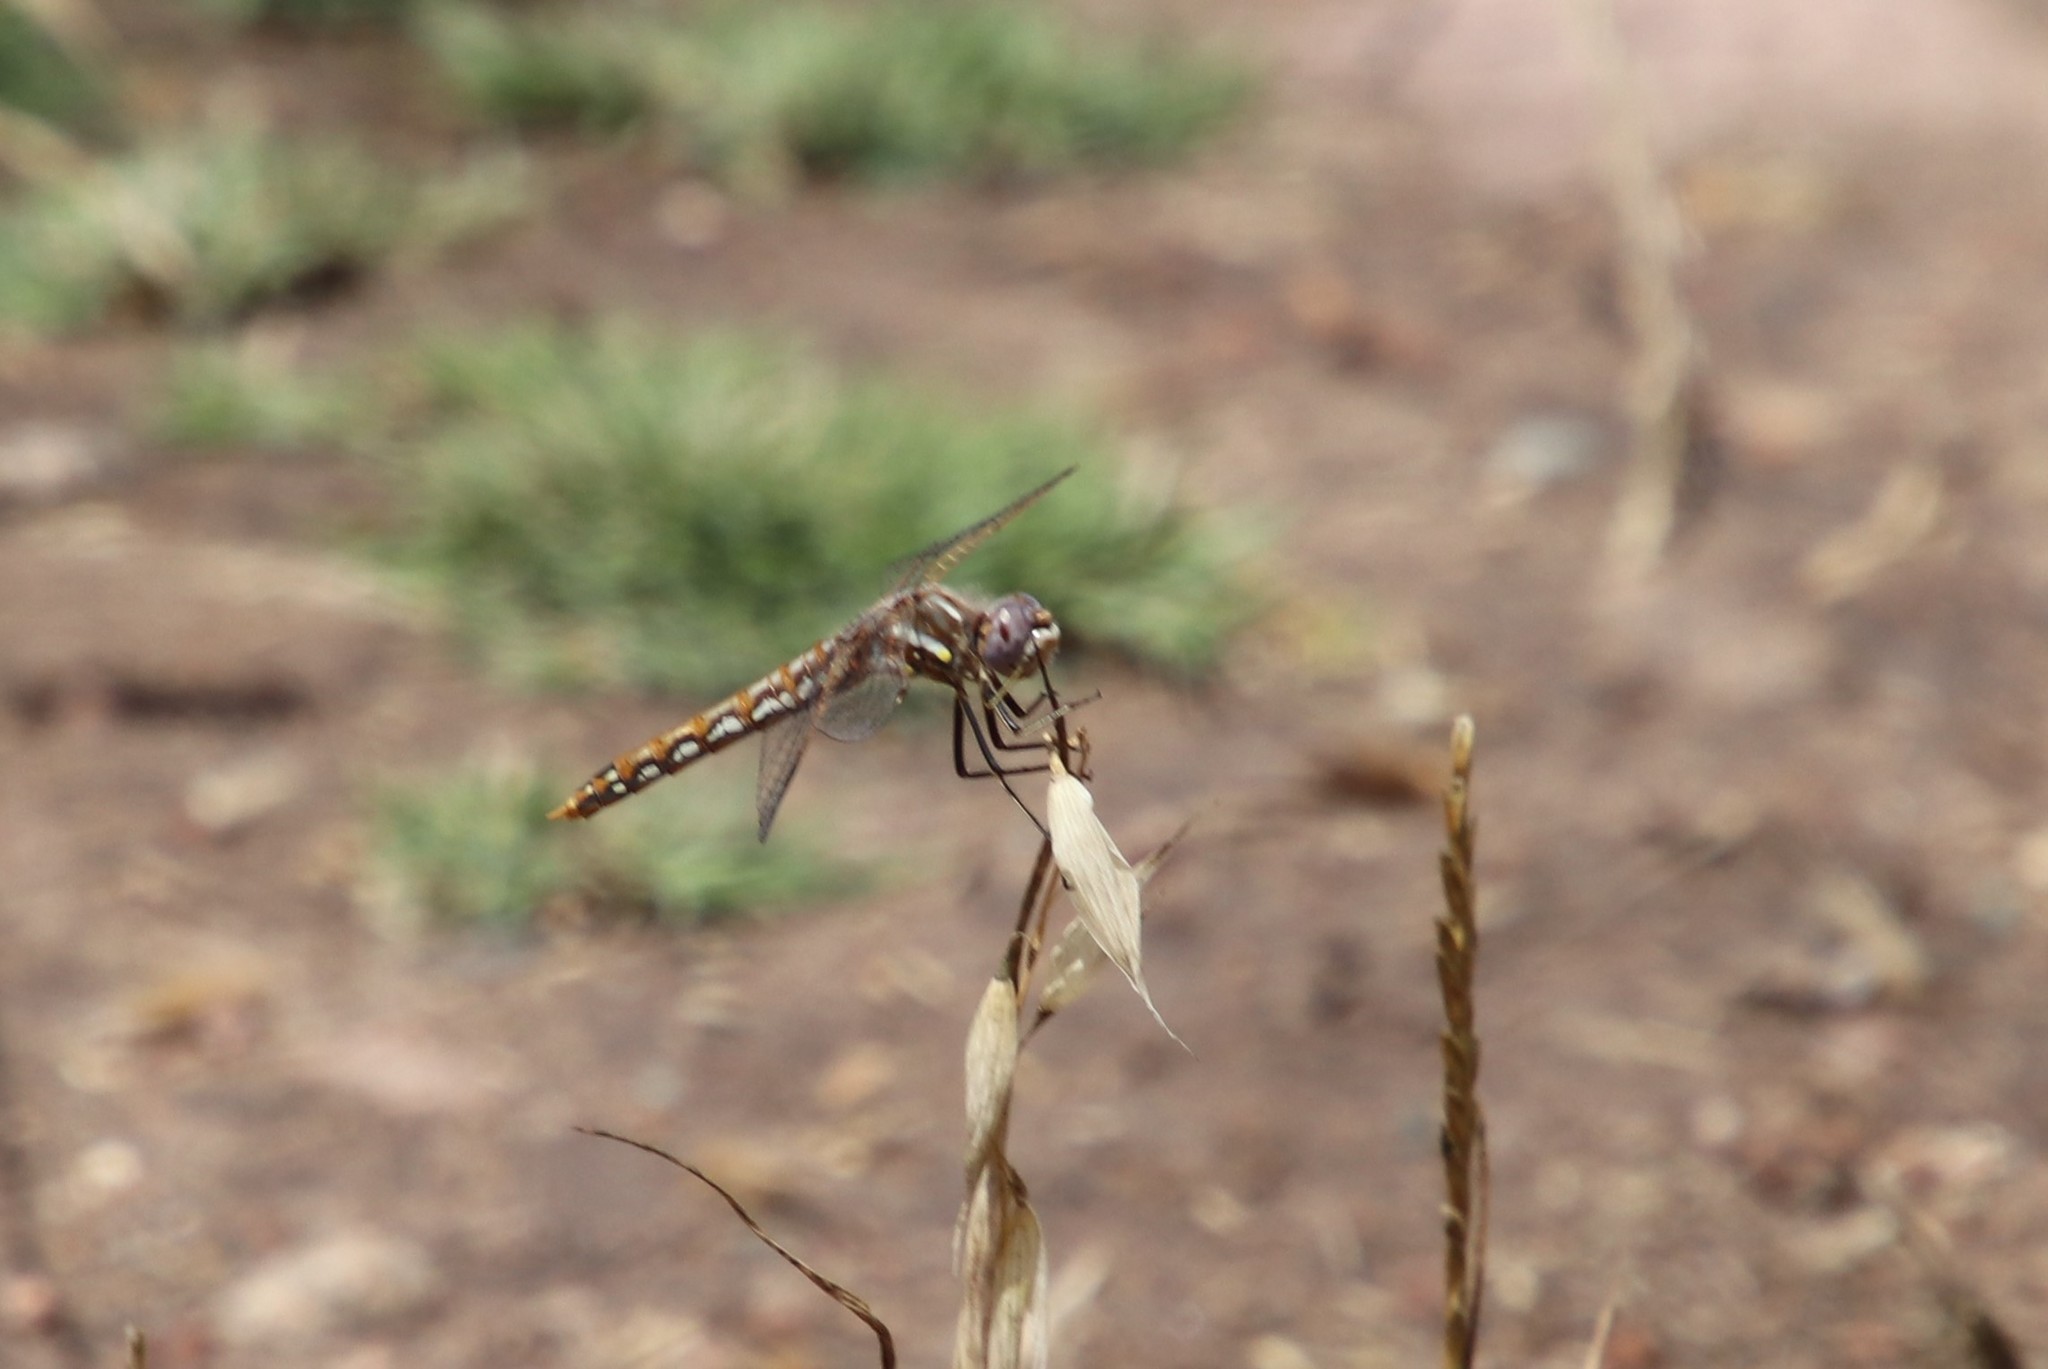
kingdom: Animalia
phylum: Arthropoda
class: Insecta
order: Odonata
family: Libellulidae
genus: Sympetrum
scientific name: Sympetrum corruptum
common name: Variegated meadowhawk
